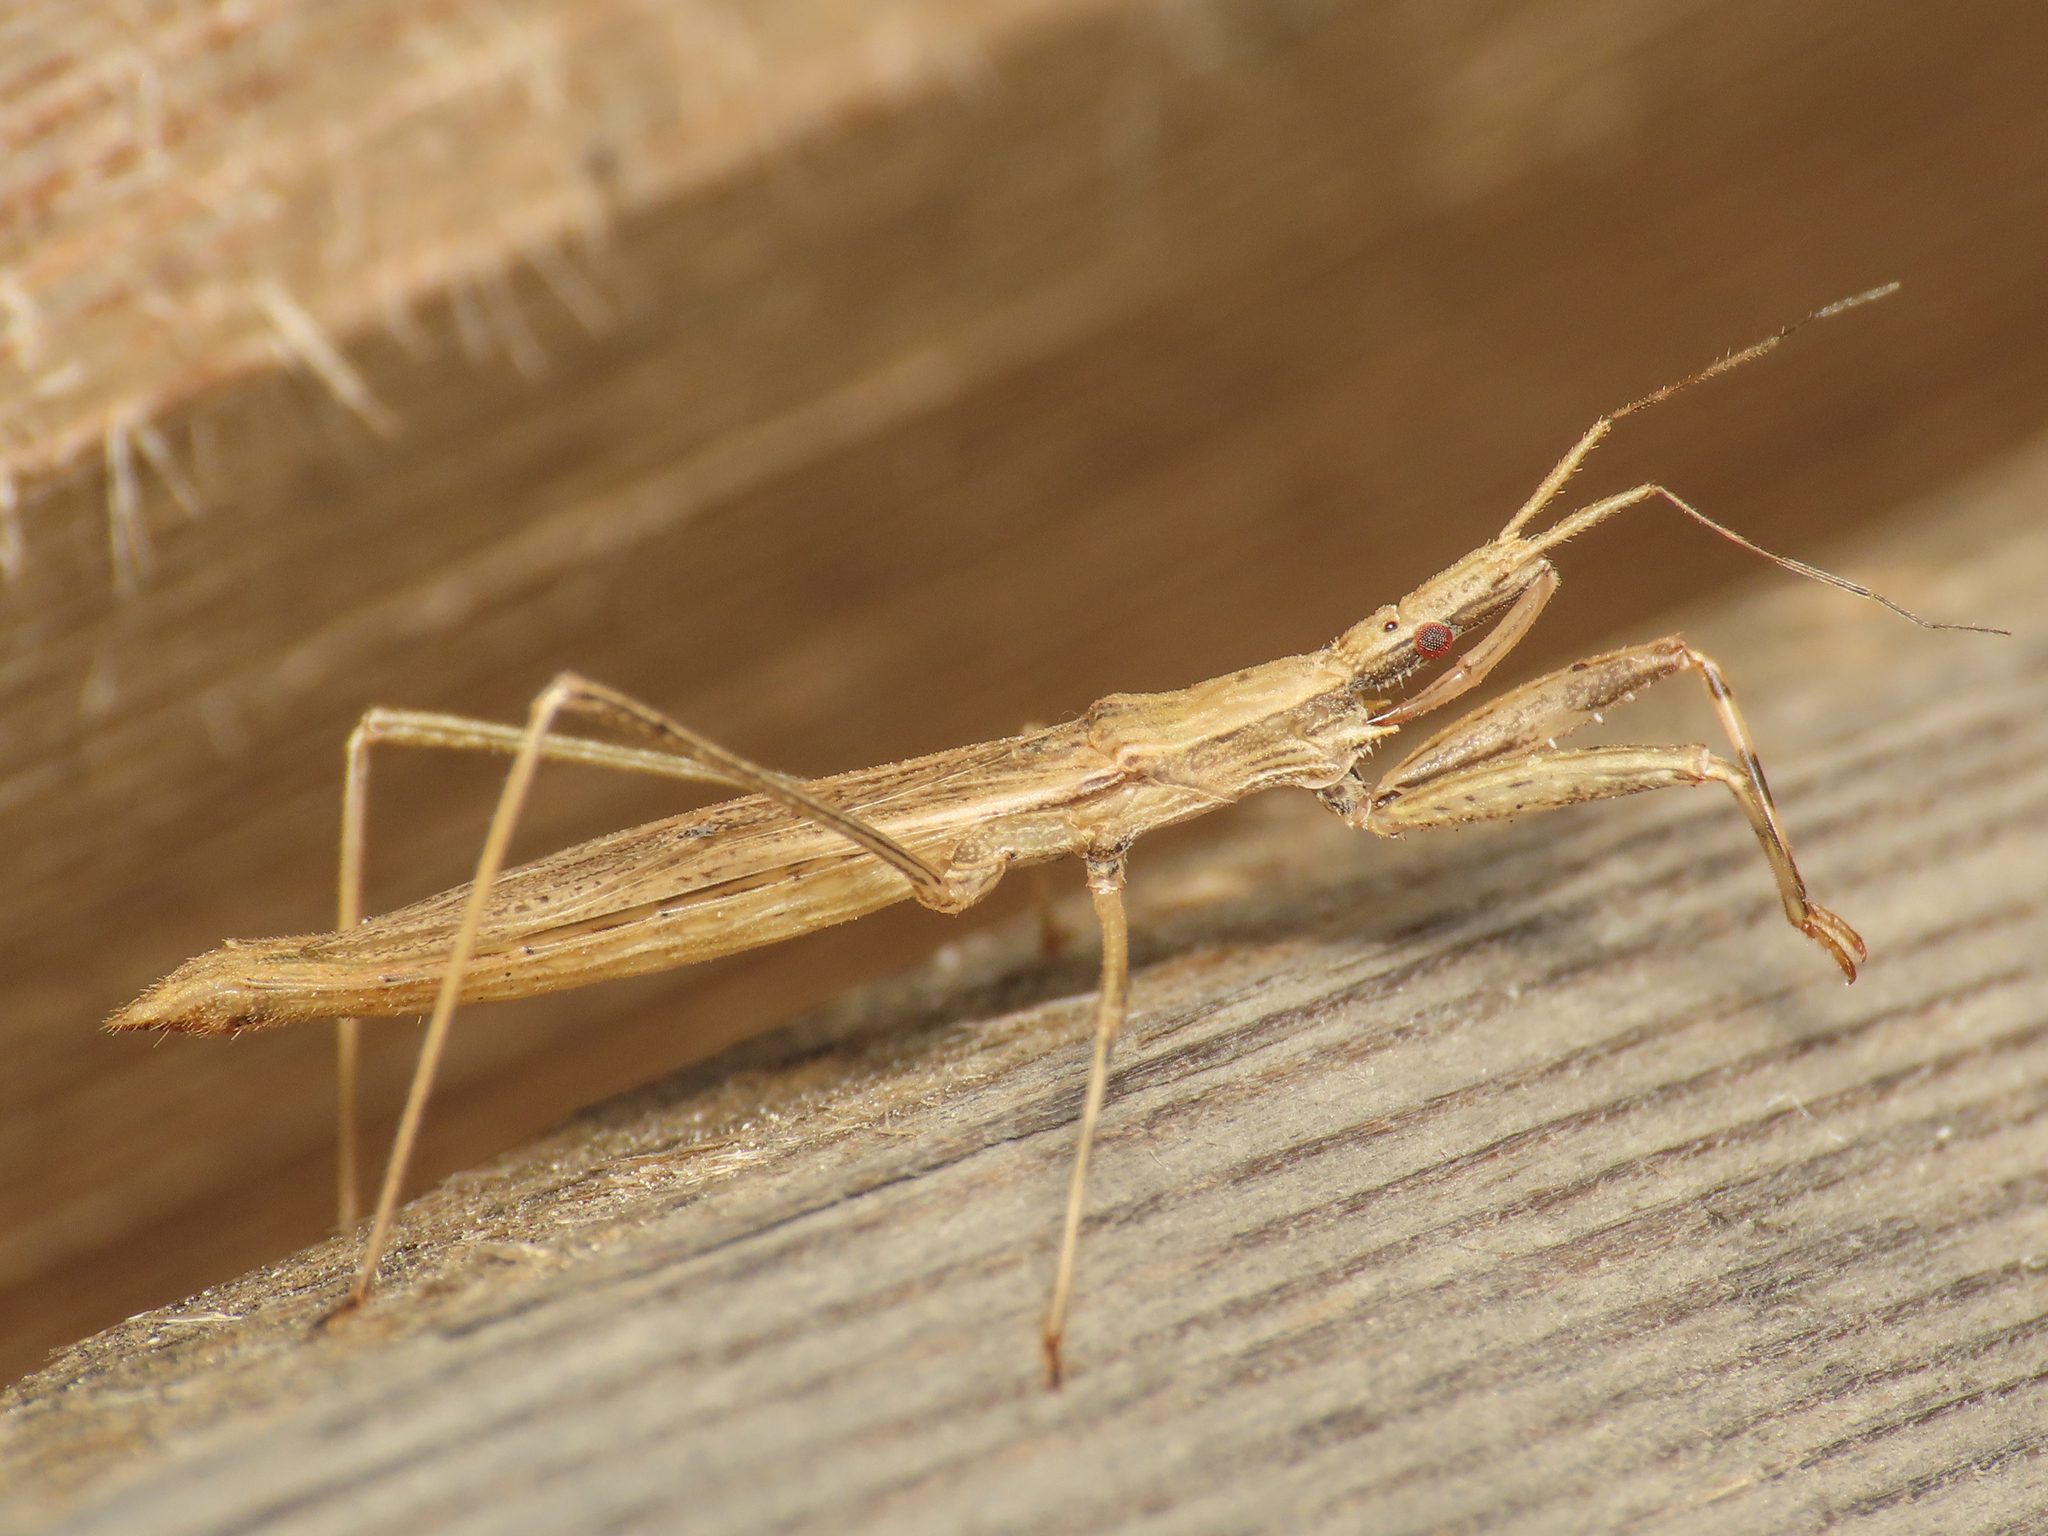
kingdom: Animalia
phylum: Arthropoda
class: Insecta
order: Hemiptera
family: Reduviidae
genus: Sastrapada
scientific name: Sastrapada baerensprungi
